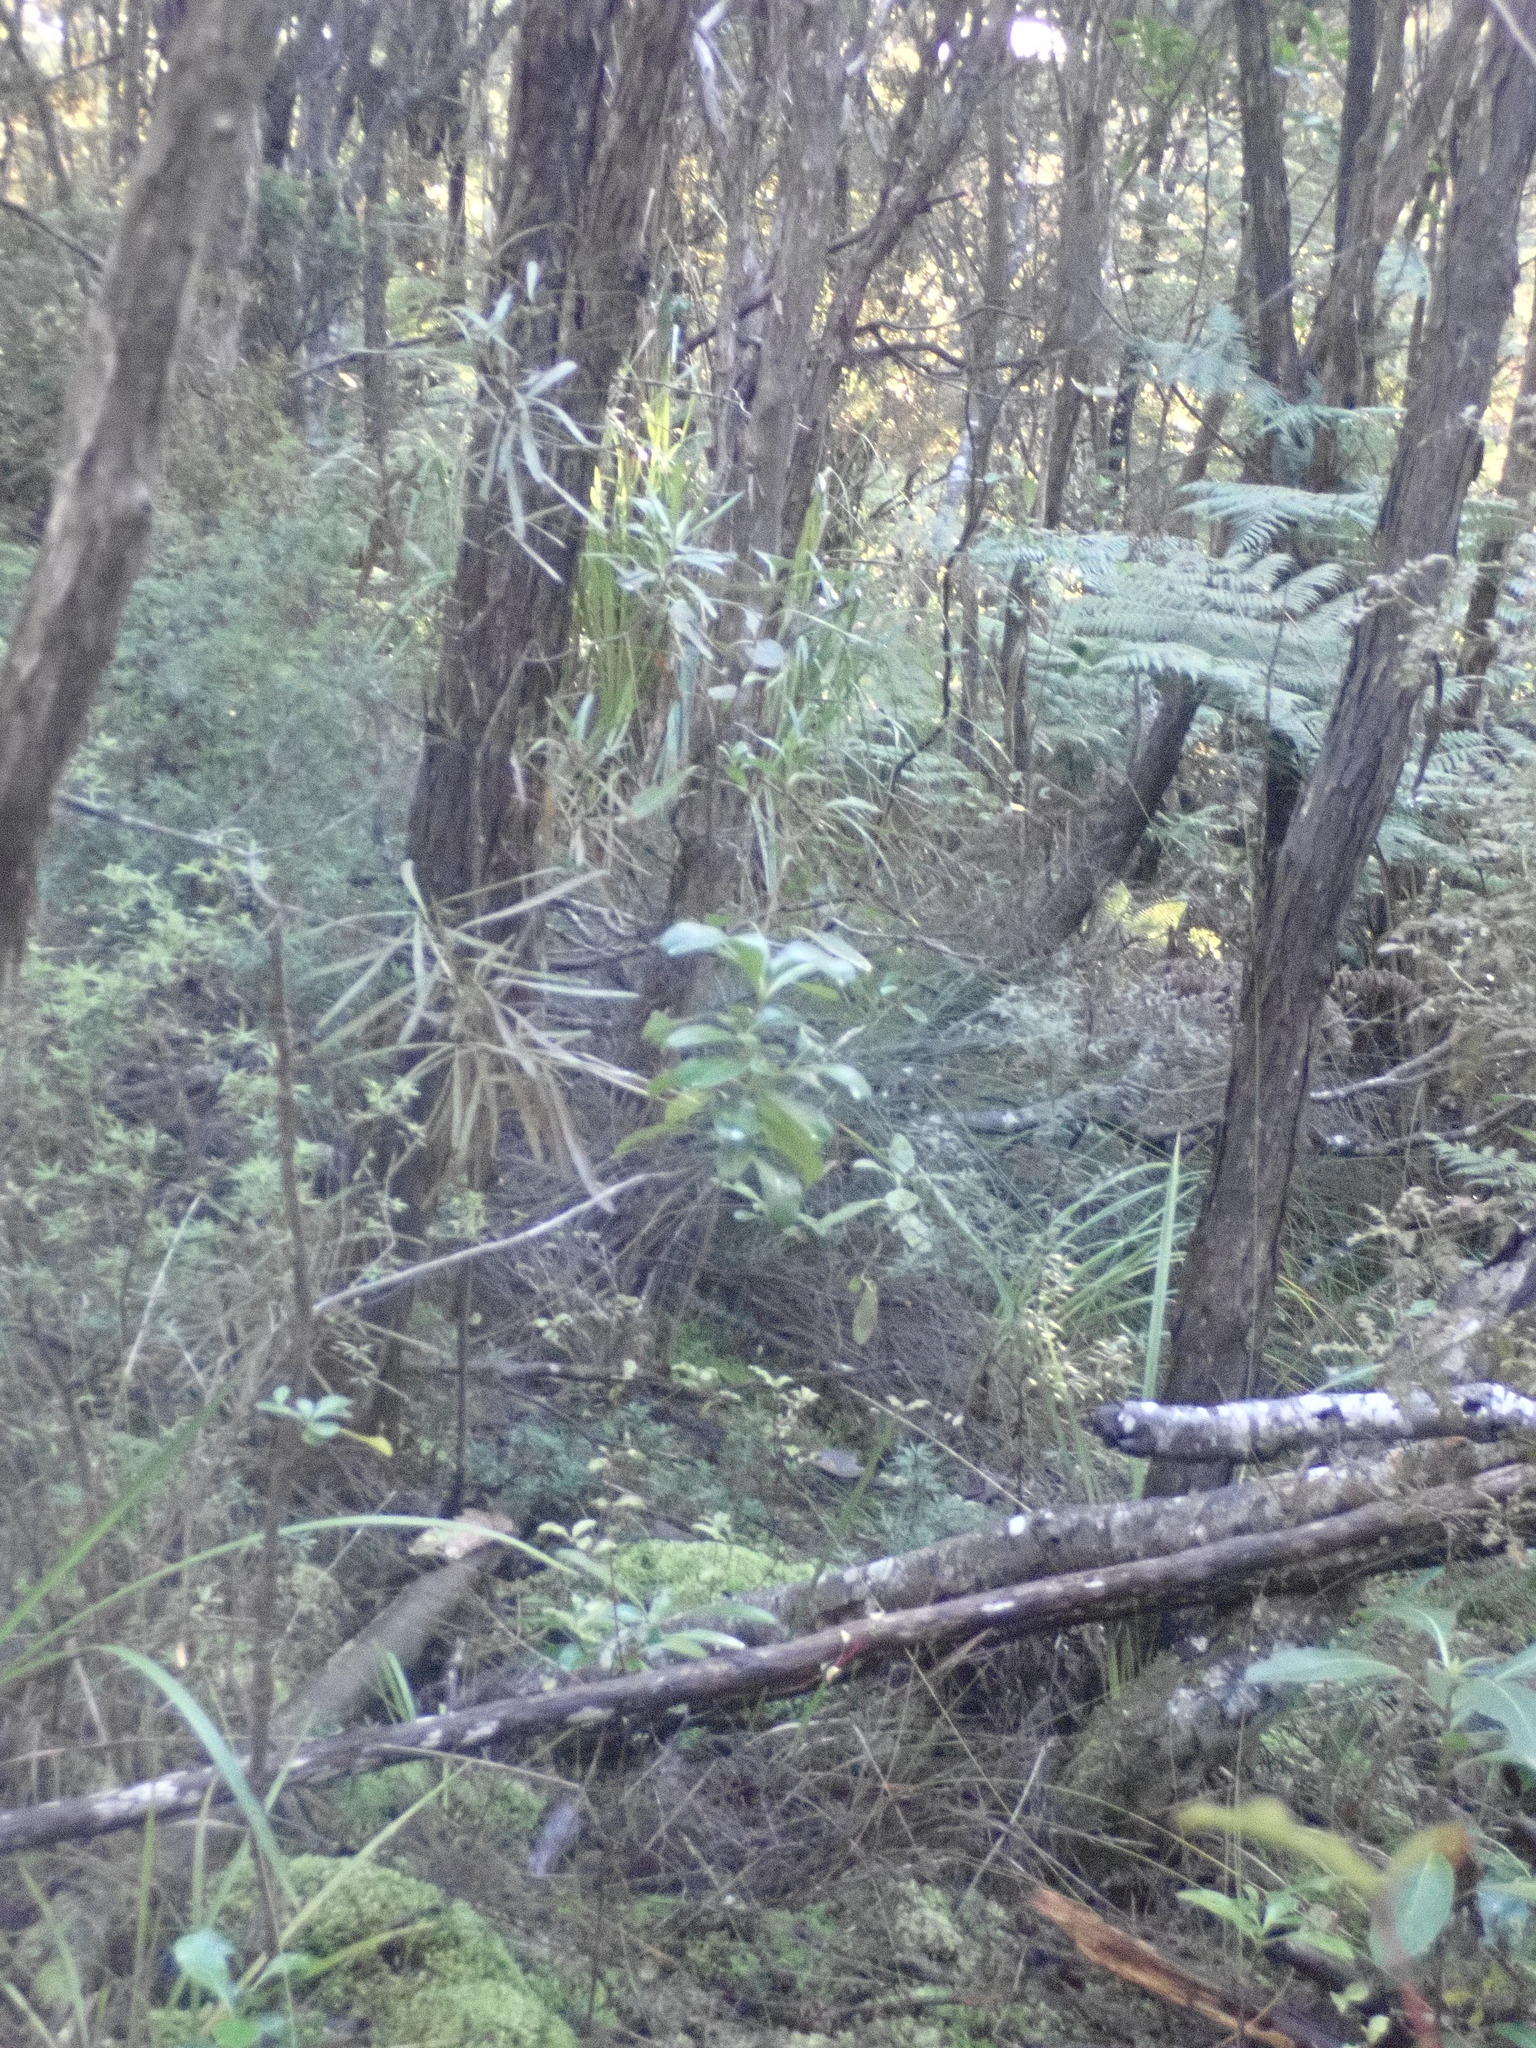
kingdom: Plantae
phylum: Tracheophyta
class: Magnoliopsida
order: Proteales
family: Proteaceae
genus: Toronia
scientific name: Toronia toru
